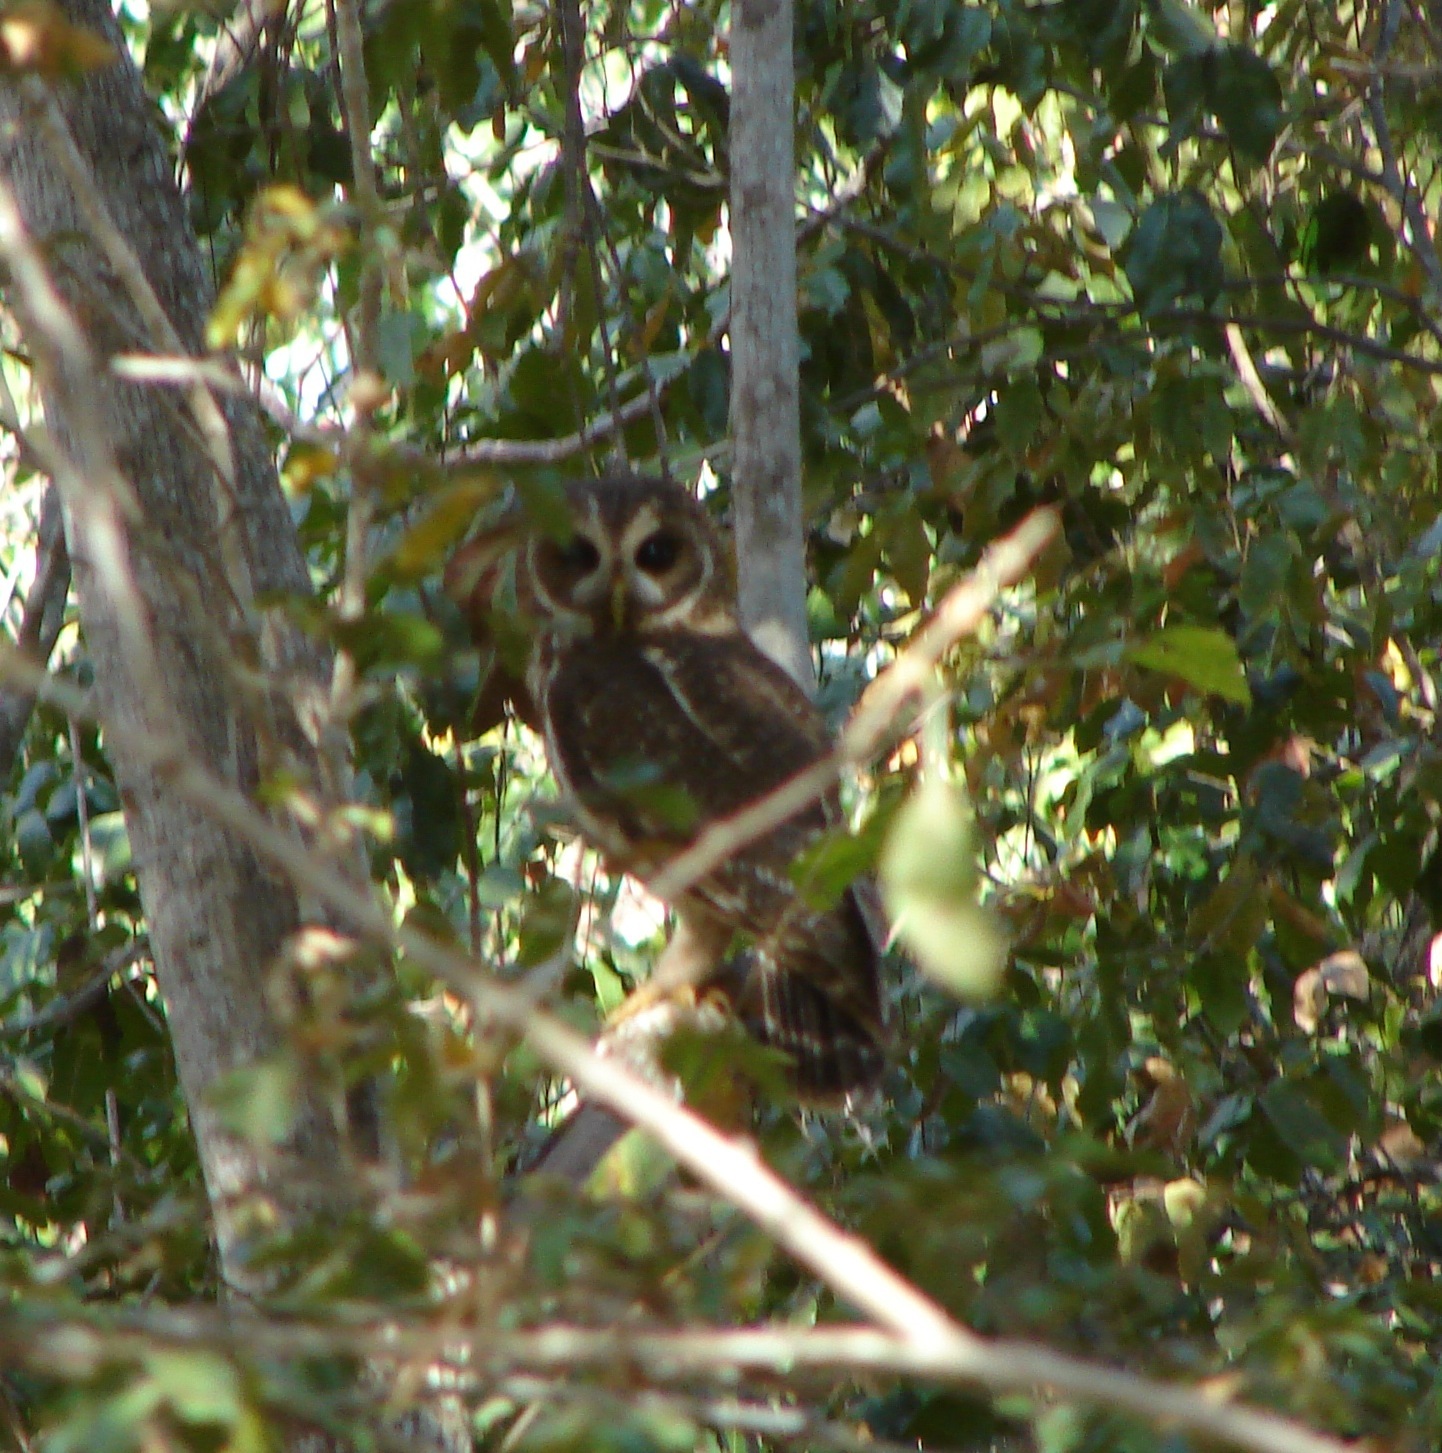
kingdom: Animalia
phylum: Chordata
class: Aves
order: Strigiformes
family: Strigidae
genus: Strix
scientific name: Strix virgata
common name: Mottled owl
